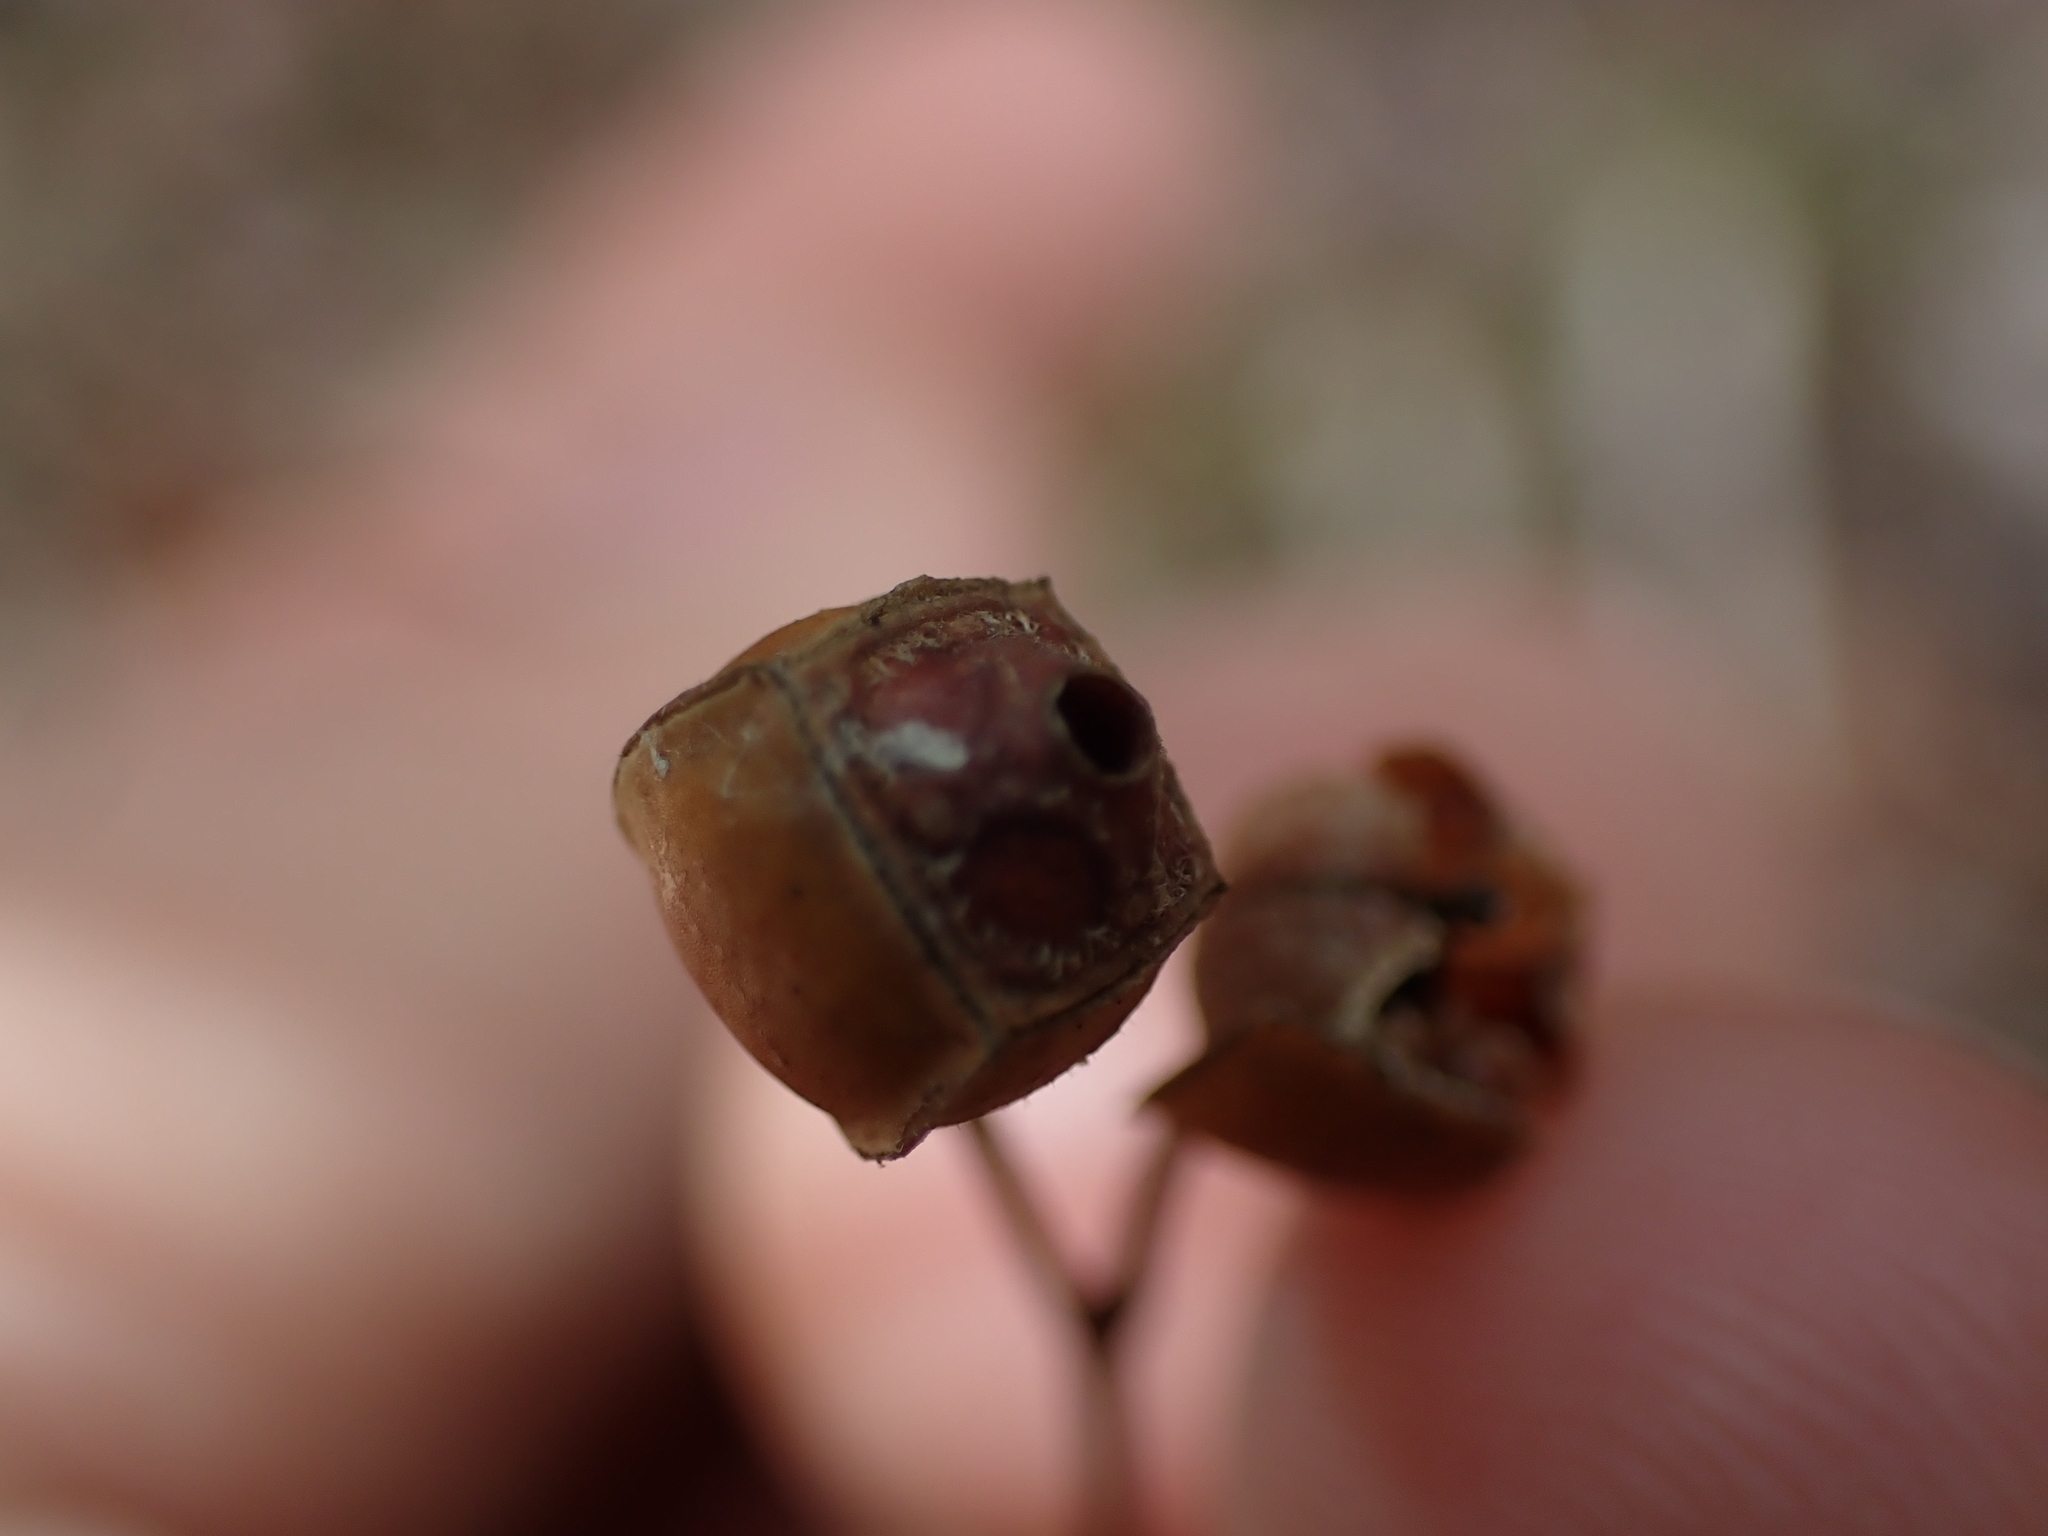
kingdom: Plantae
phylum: Tracheophyta
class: Magnoliopsida
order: Myrtales
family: Onagraceae
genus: Ludwigia
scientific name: Ludwigia alternifolia
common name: Rattlebox
